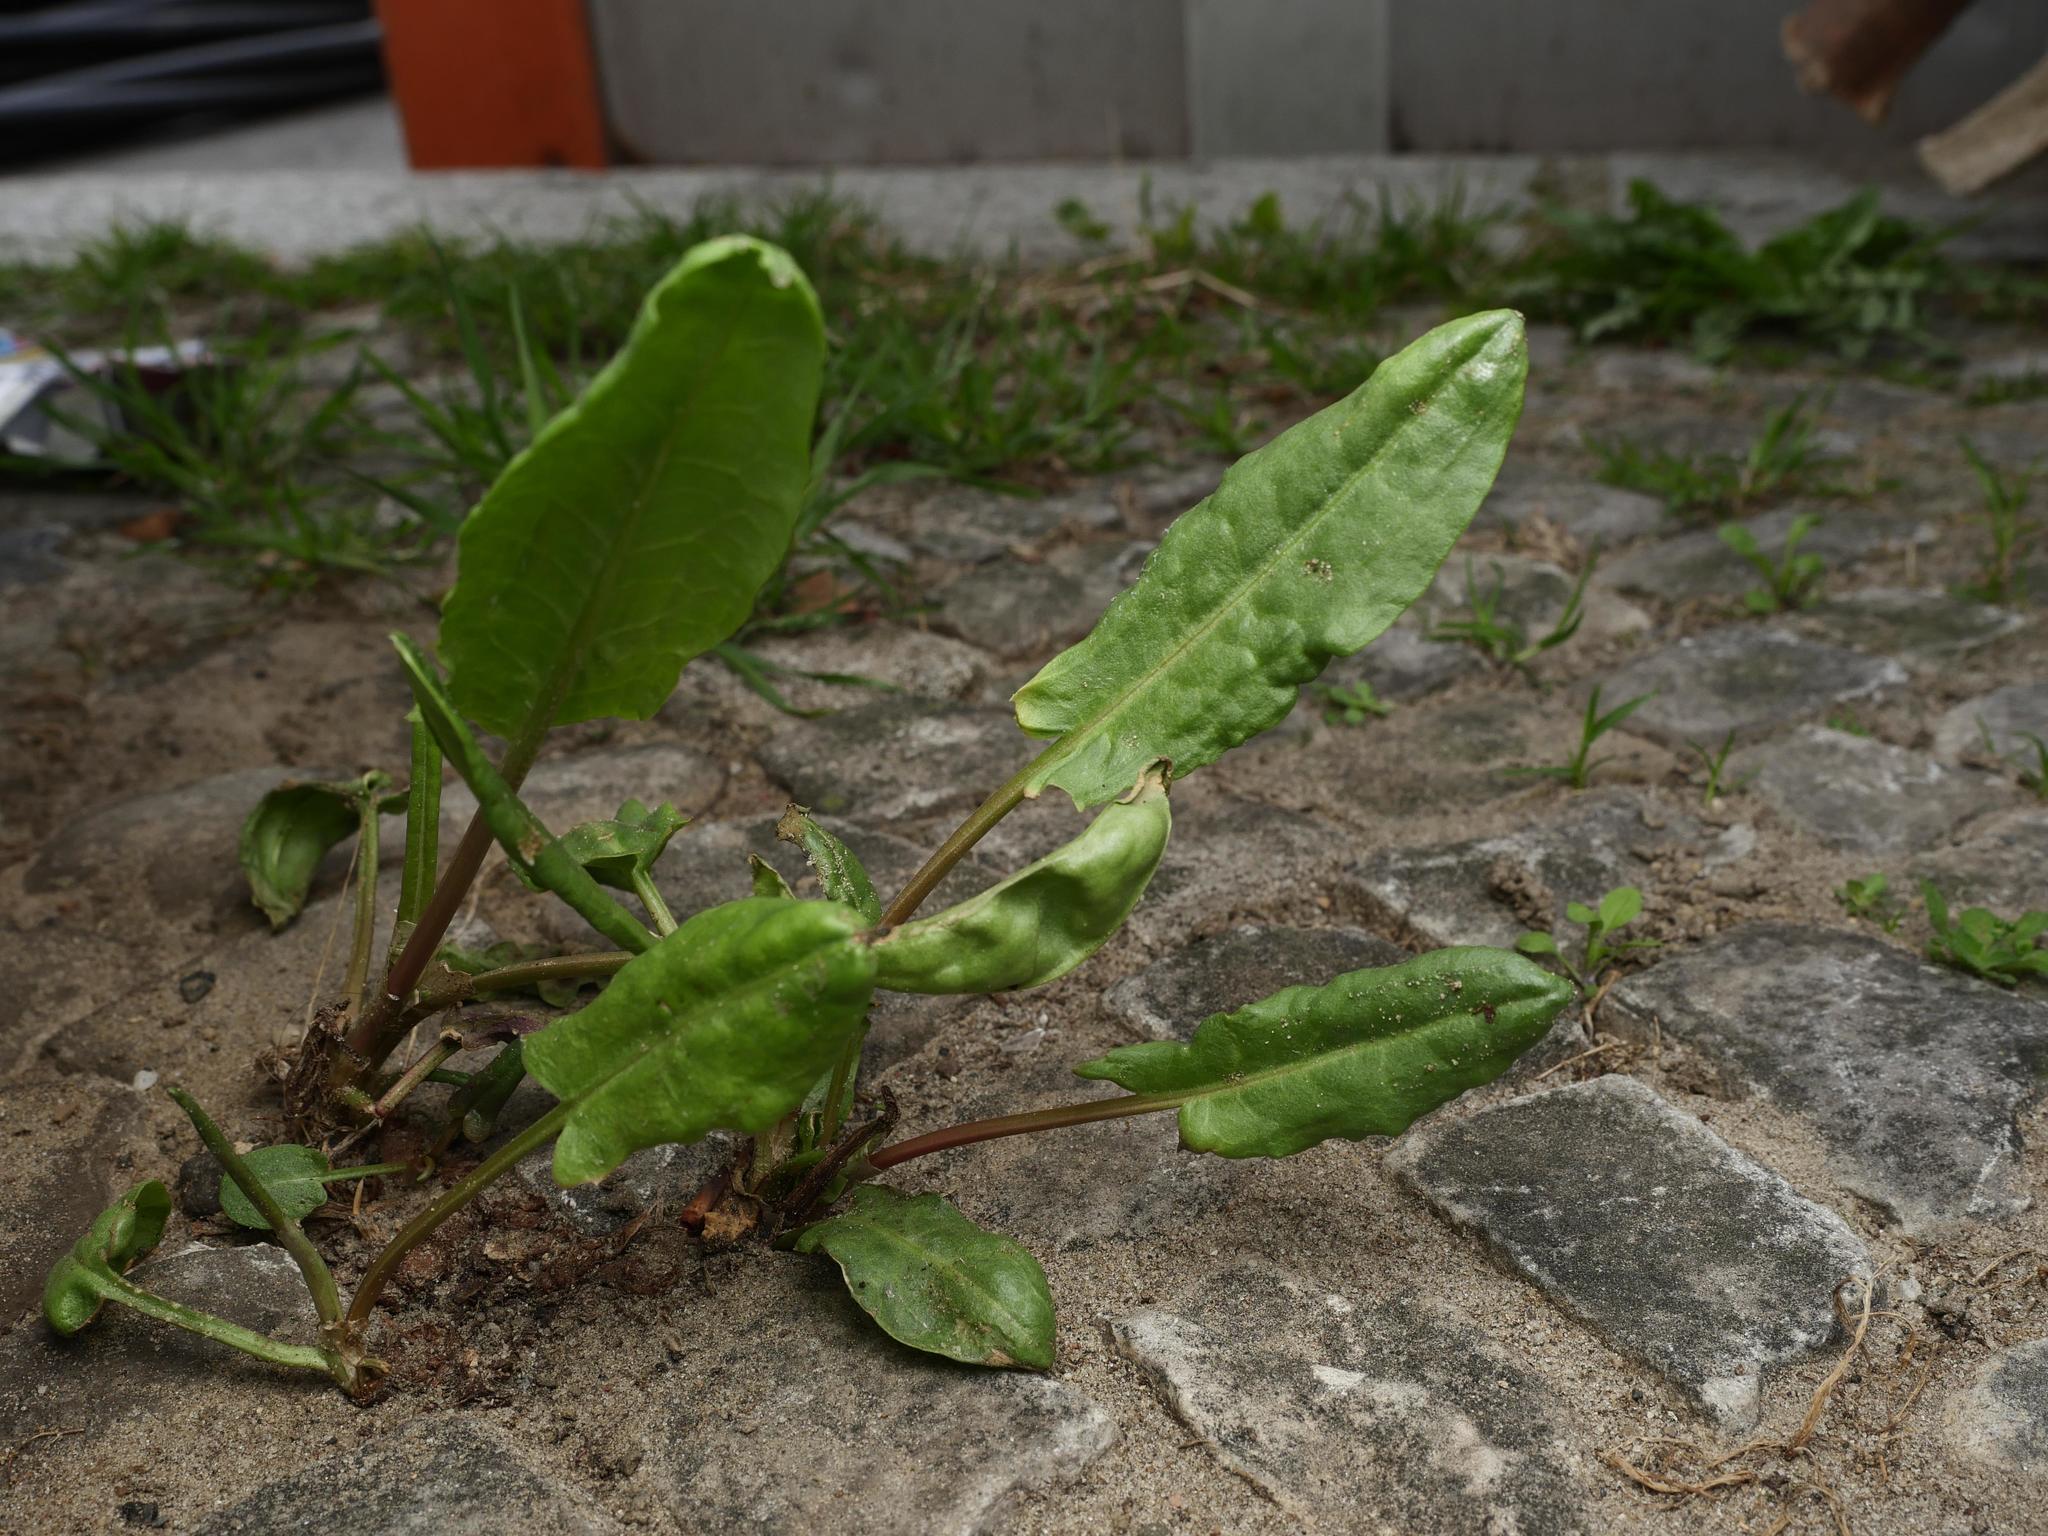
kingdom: Plantae
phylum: Tracheophyta
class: Magnoliopsida
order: Caryophyllales
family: Polygonaceae
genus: Rumex
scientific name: Rumex acetosa
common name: Garden sorrel
